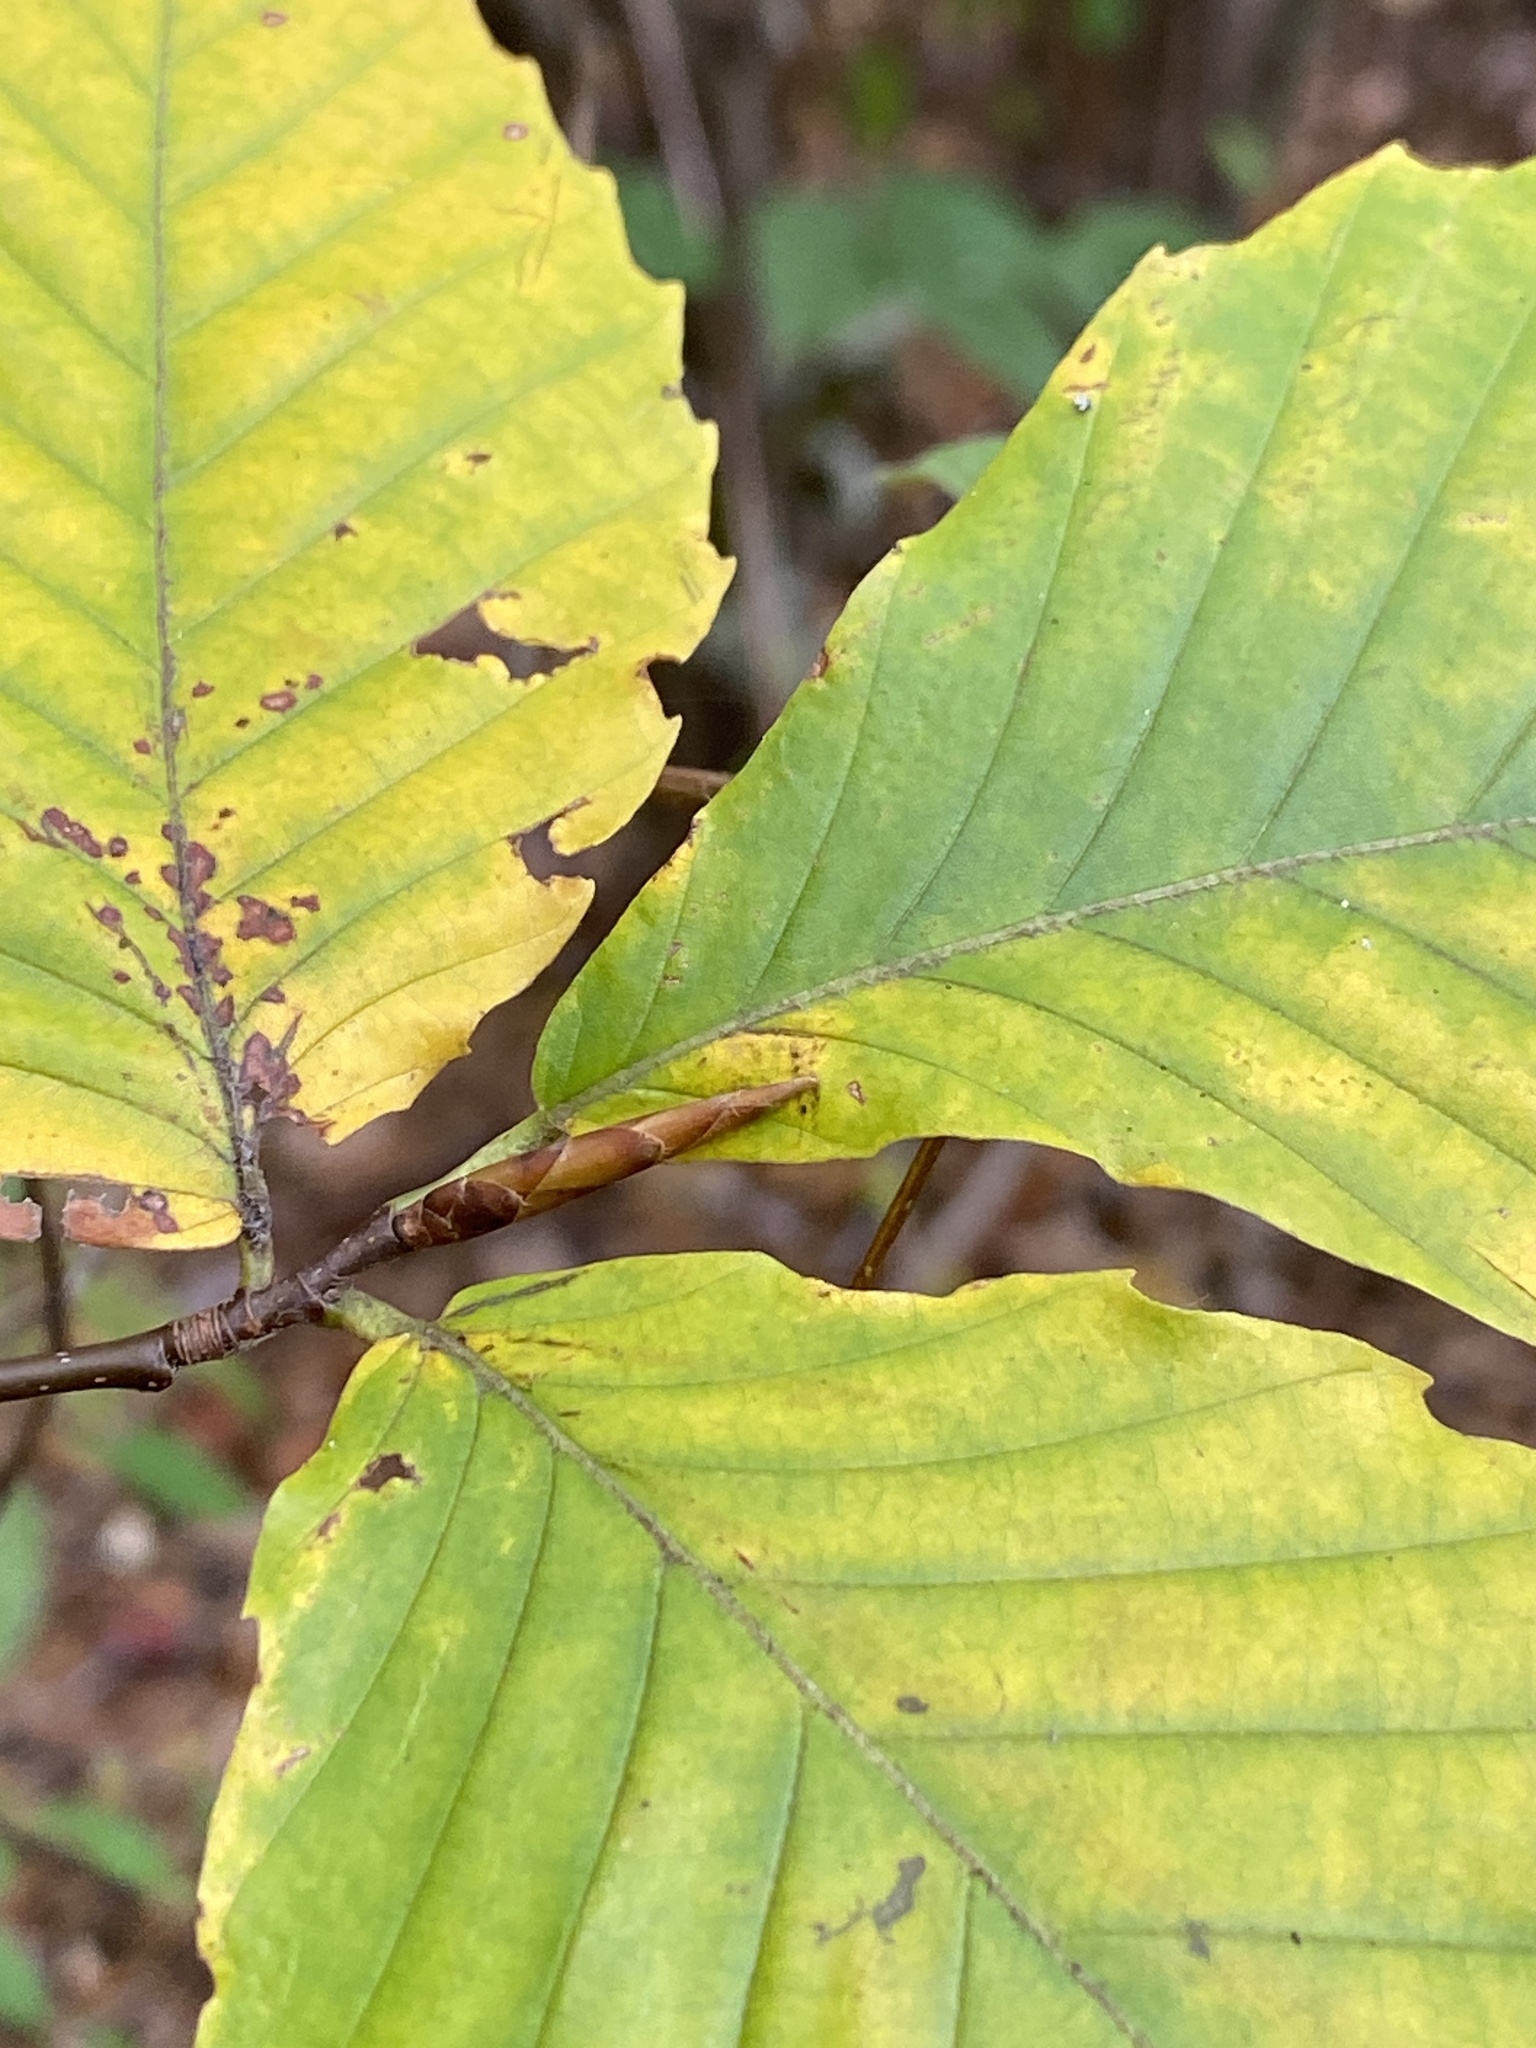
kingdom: Plantae
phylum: Tracheophyta
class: Magnoliopsida
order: Fagales
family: Fagaceae
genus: Fagus
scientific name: Fagus grandifolia
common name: American beech
